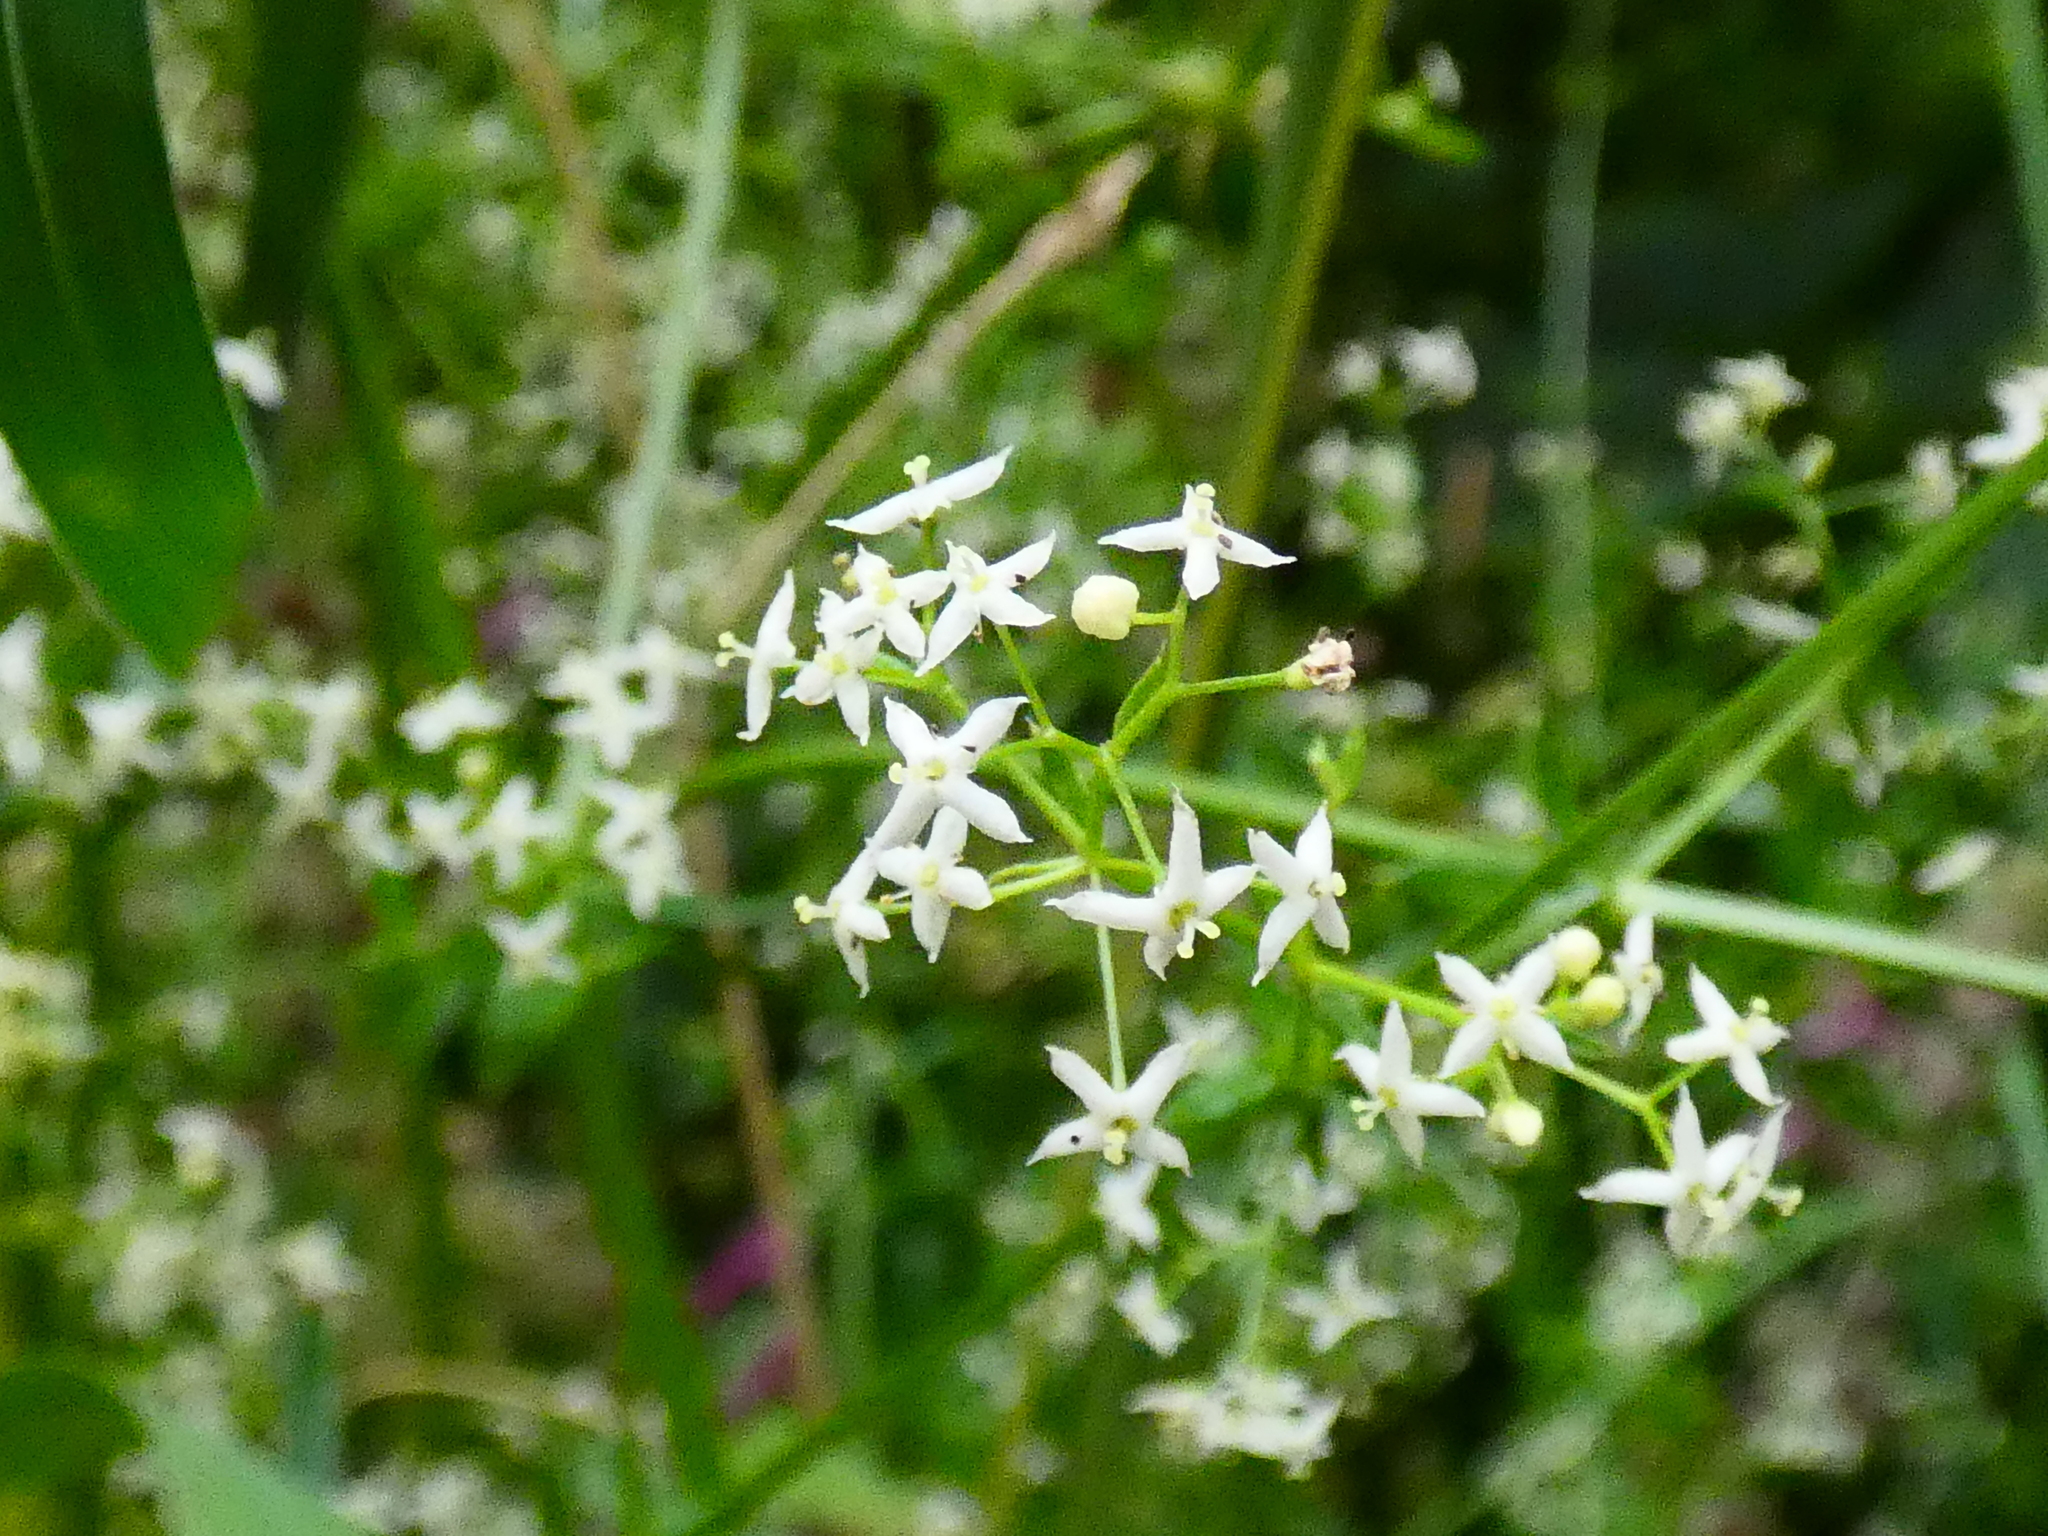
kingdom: Plantae
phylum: Tracheophyta
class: Magnoliopsida
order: Gentianales
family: Rubiaceae
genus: Galium
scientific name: Galium album
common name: White bedstraw
